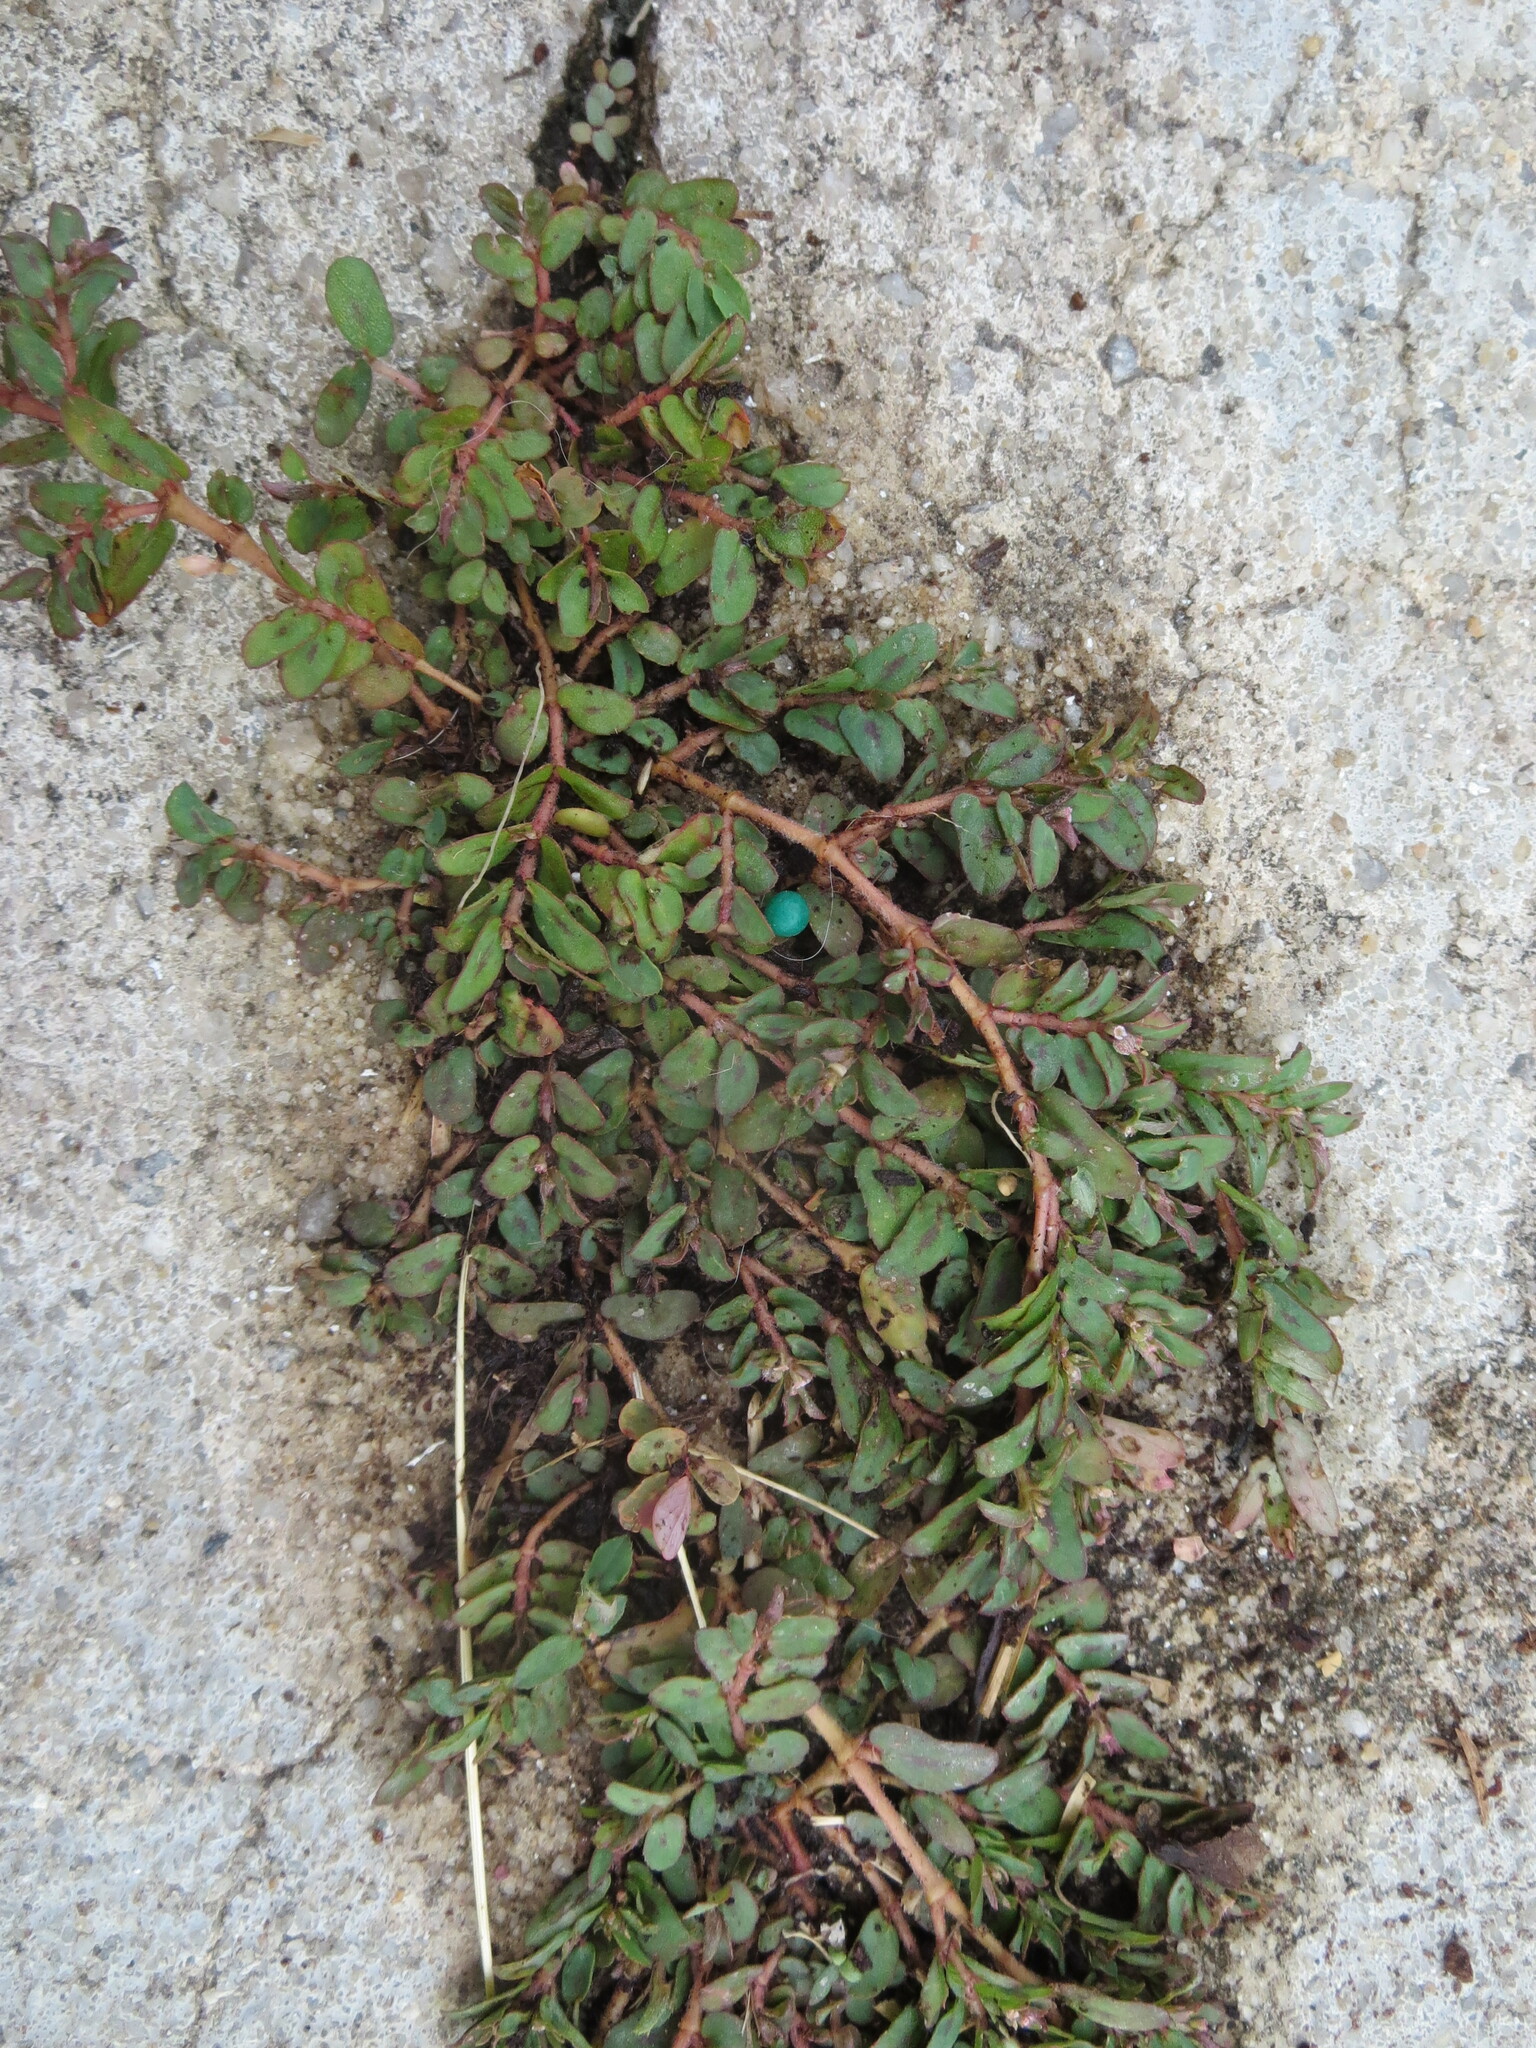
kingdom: Plantae
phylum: Tracheophyta
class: Magnoliopsida
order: Malpighiales
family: Euphorbiaceae
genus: Euphorbia
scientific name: Euphorbia maculata
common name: Spotted spurge
